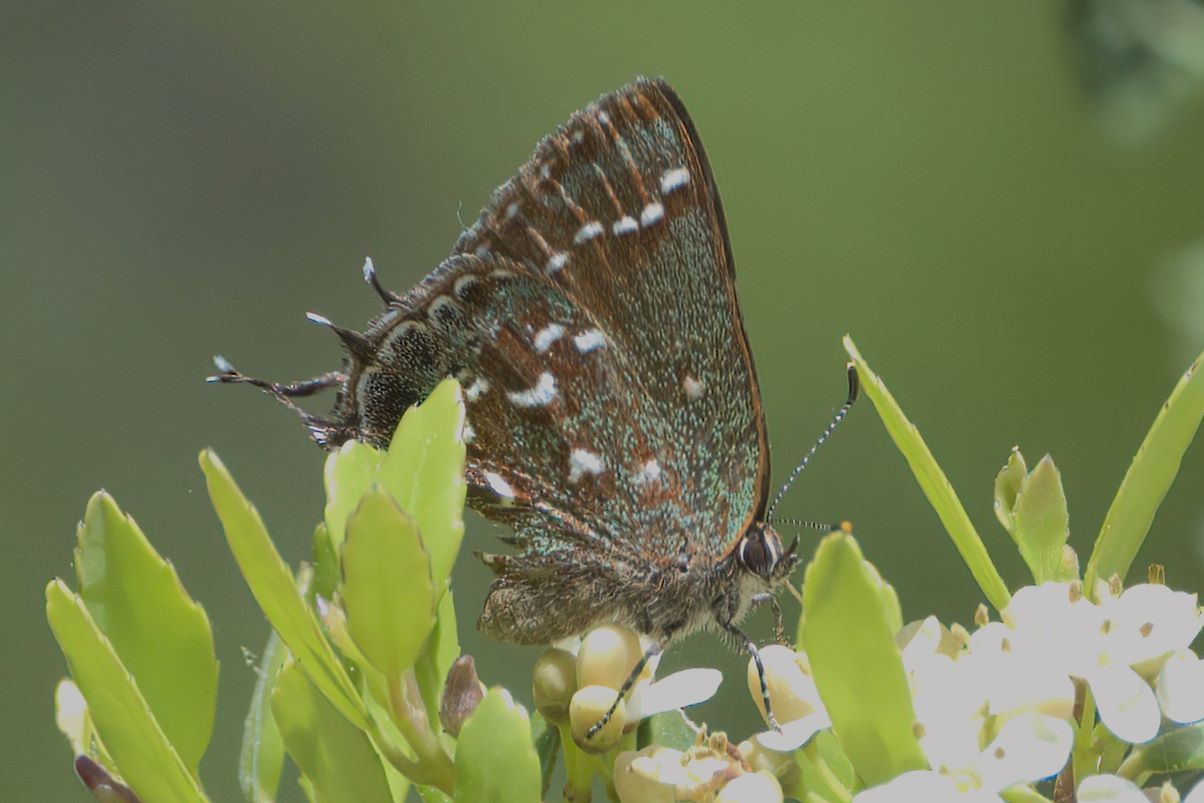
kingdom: Animalia
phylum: Arthropoda
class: Insecta
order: Lepidoptera
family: Lycaenidae
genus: Mitoura
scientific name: Mitoura hesseli
